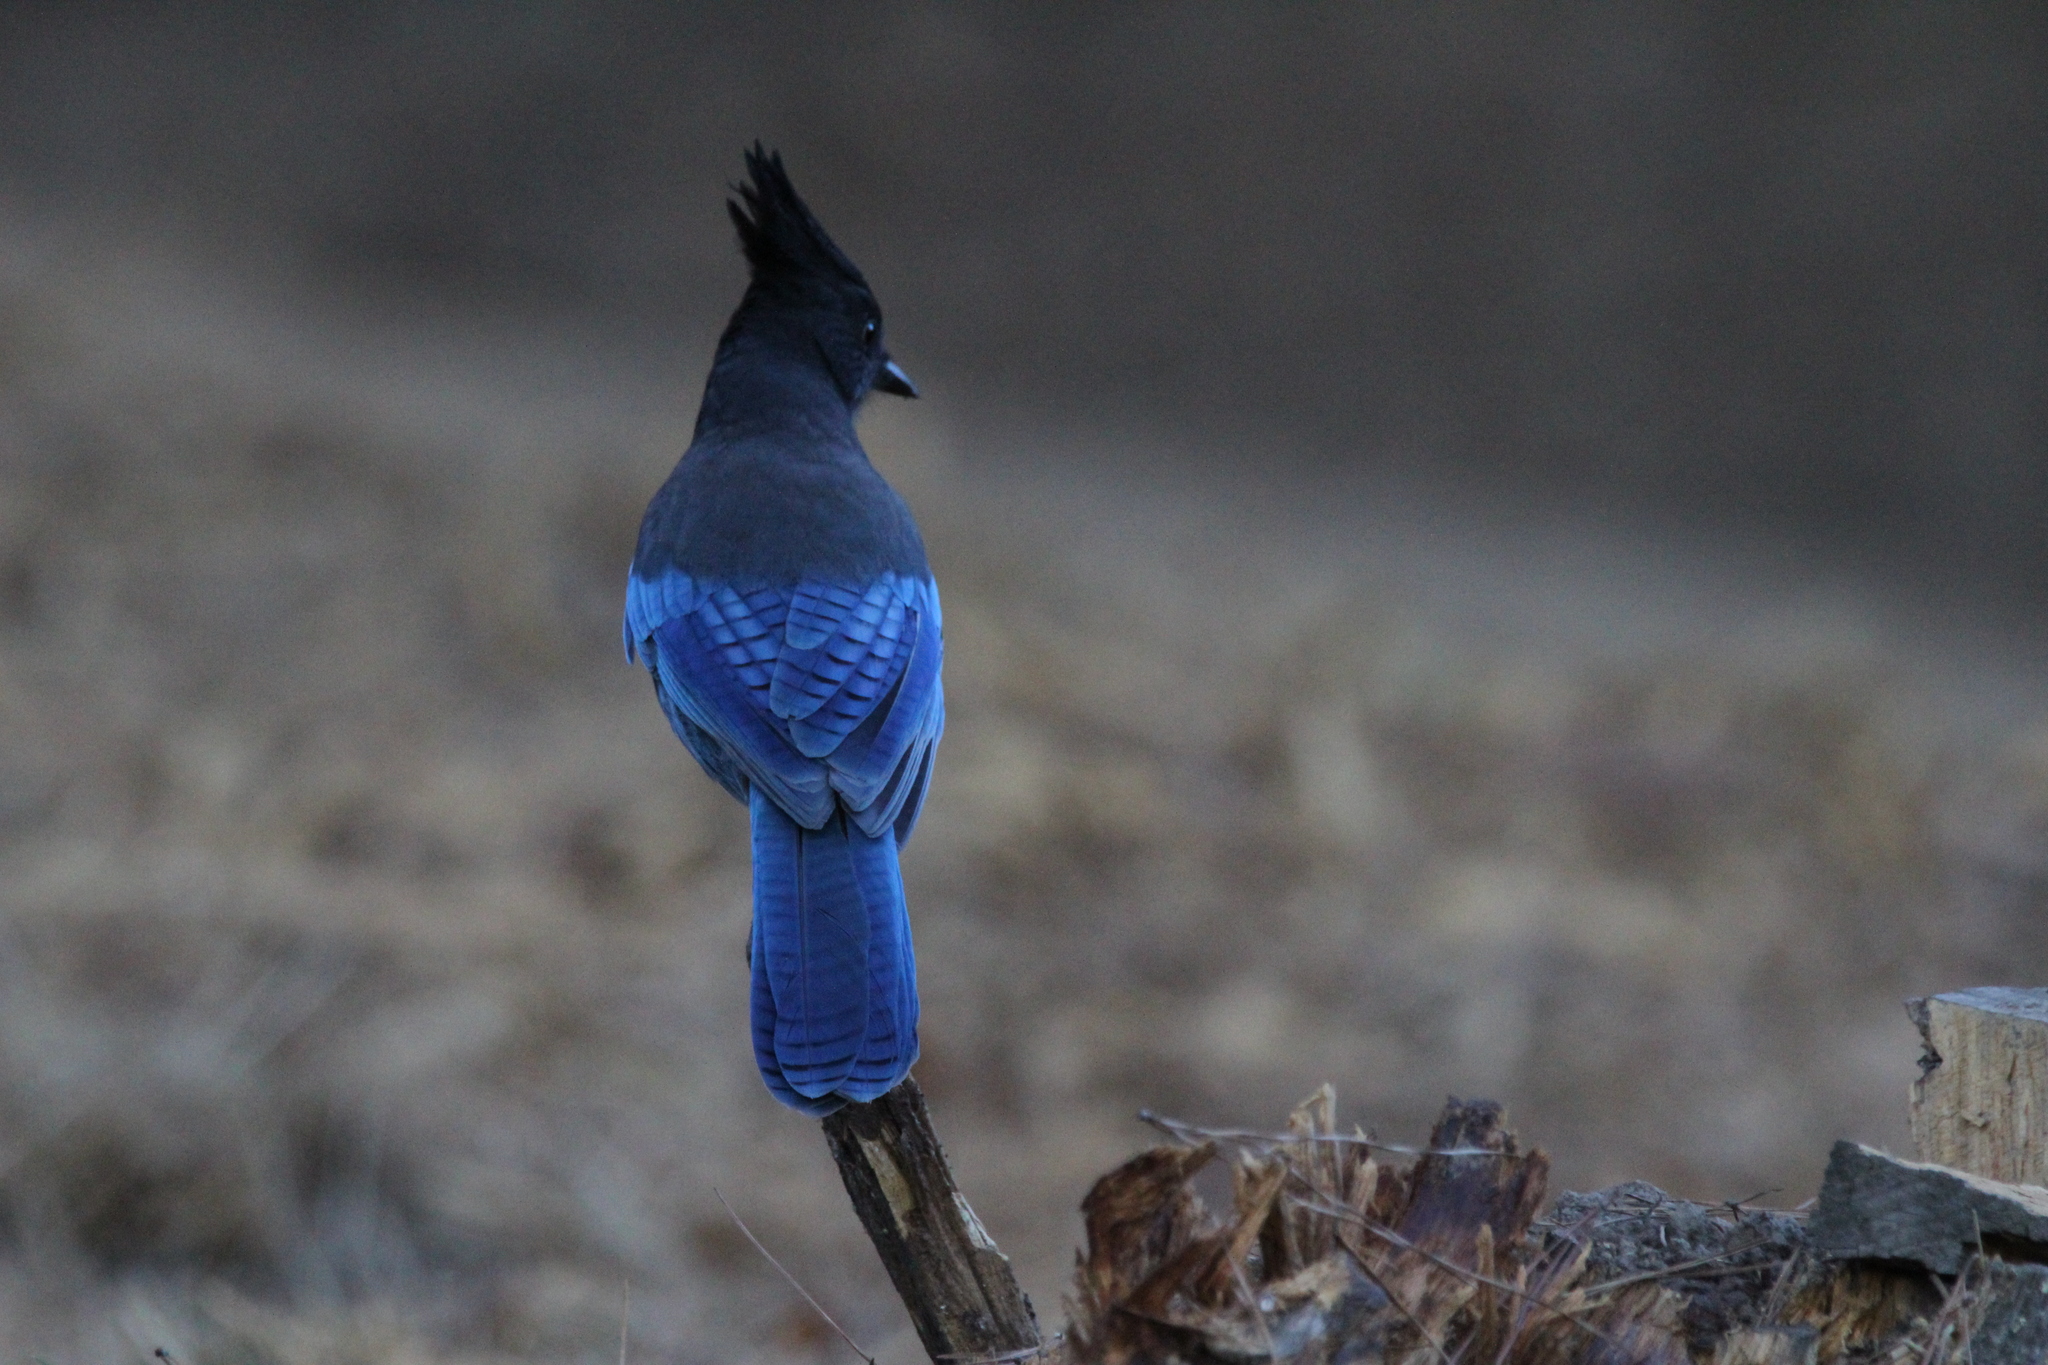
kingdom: Animalia
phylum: Chordata
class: Aves
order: Passeriformes
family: Corvidae
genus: Cyanocitta
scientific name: Cyanocitta stelleri
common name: Steller's jay
